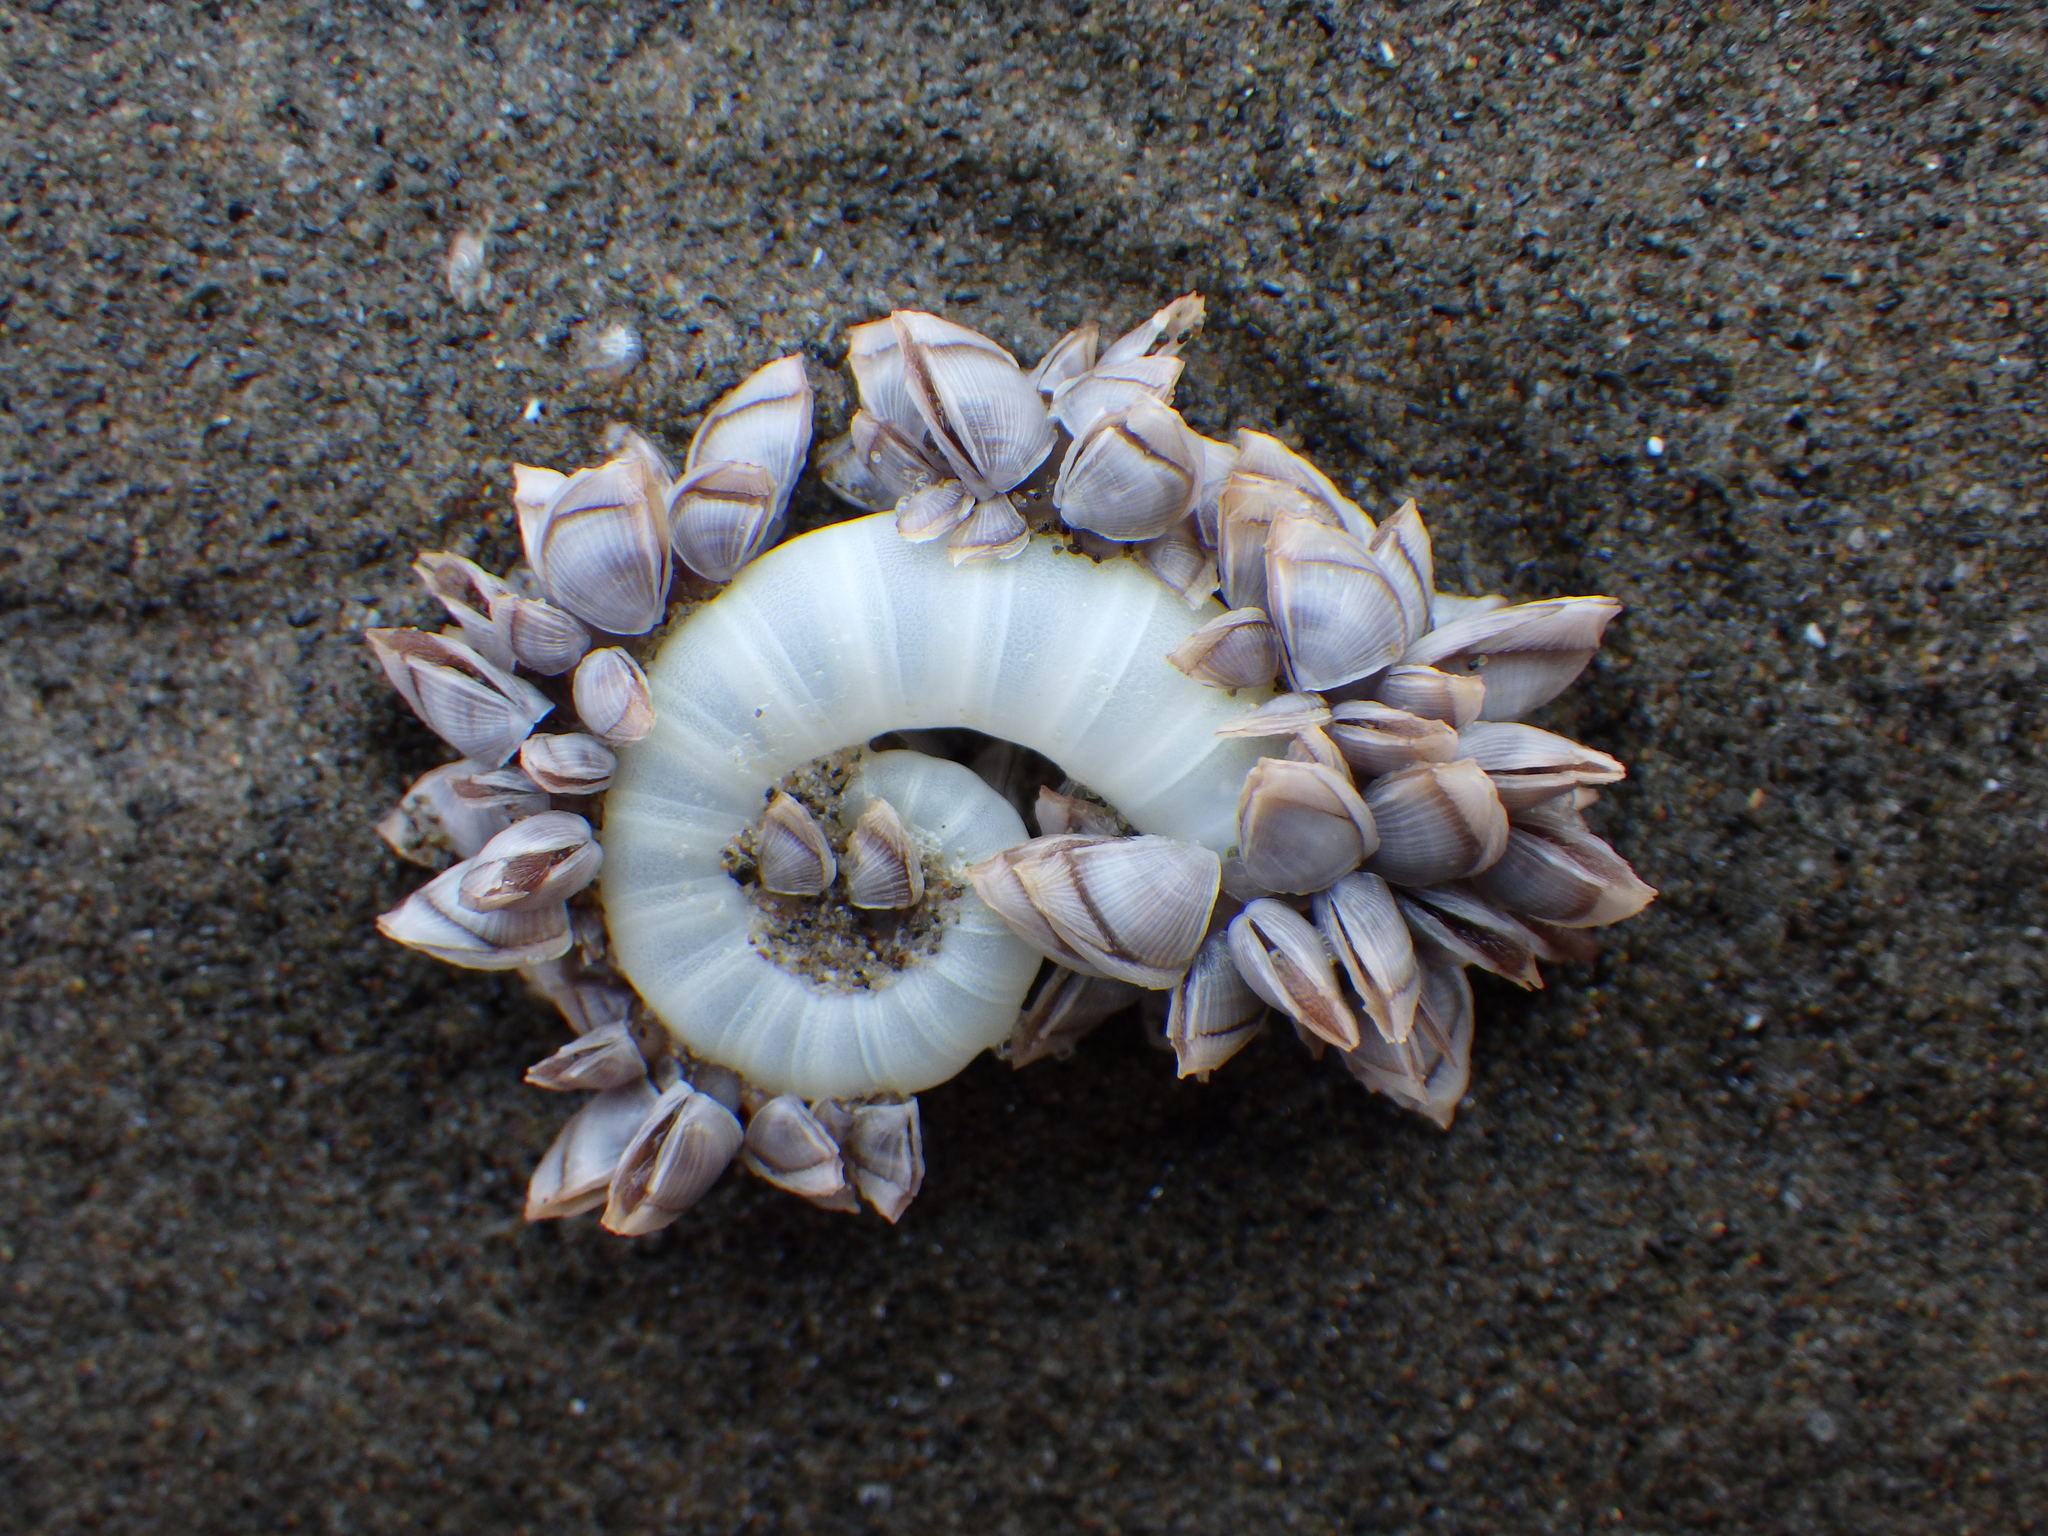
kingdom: Animalia
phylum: Mollusca
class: Cephalopoda
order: Spirulida
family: Spirulidae
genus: Spirula
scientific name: Spirula spirula
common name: Ram's horn squid
